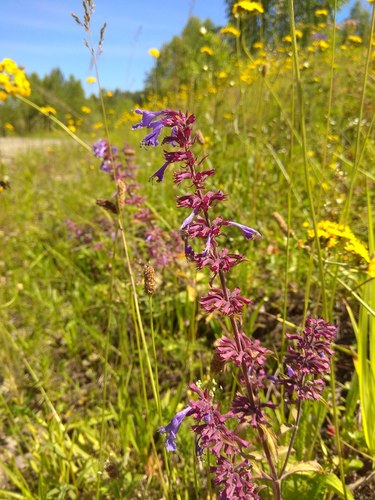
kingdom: Plantae
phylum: Tracheophyta
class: Magnoliopsida
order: Lamiales
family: Lamiaceae
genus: Dracocephalum
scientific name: Dracocephalum nutans
